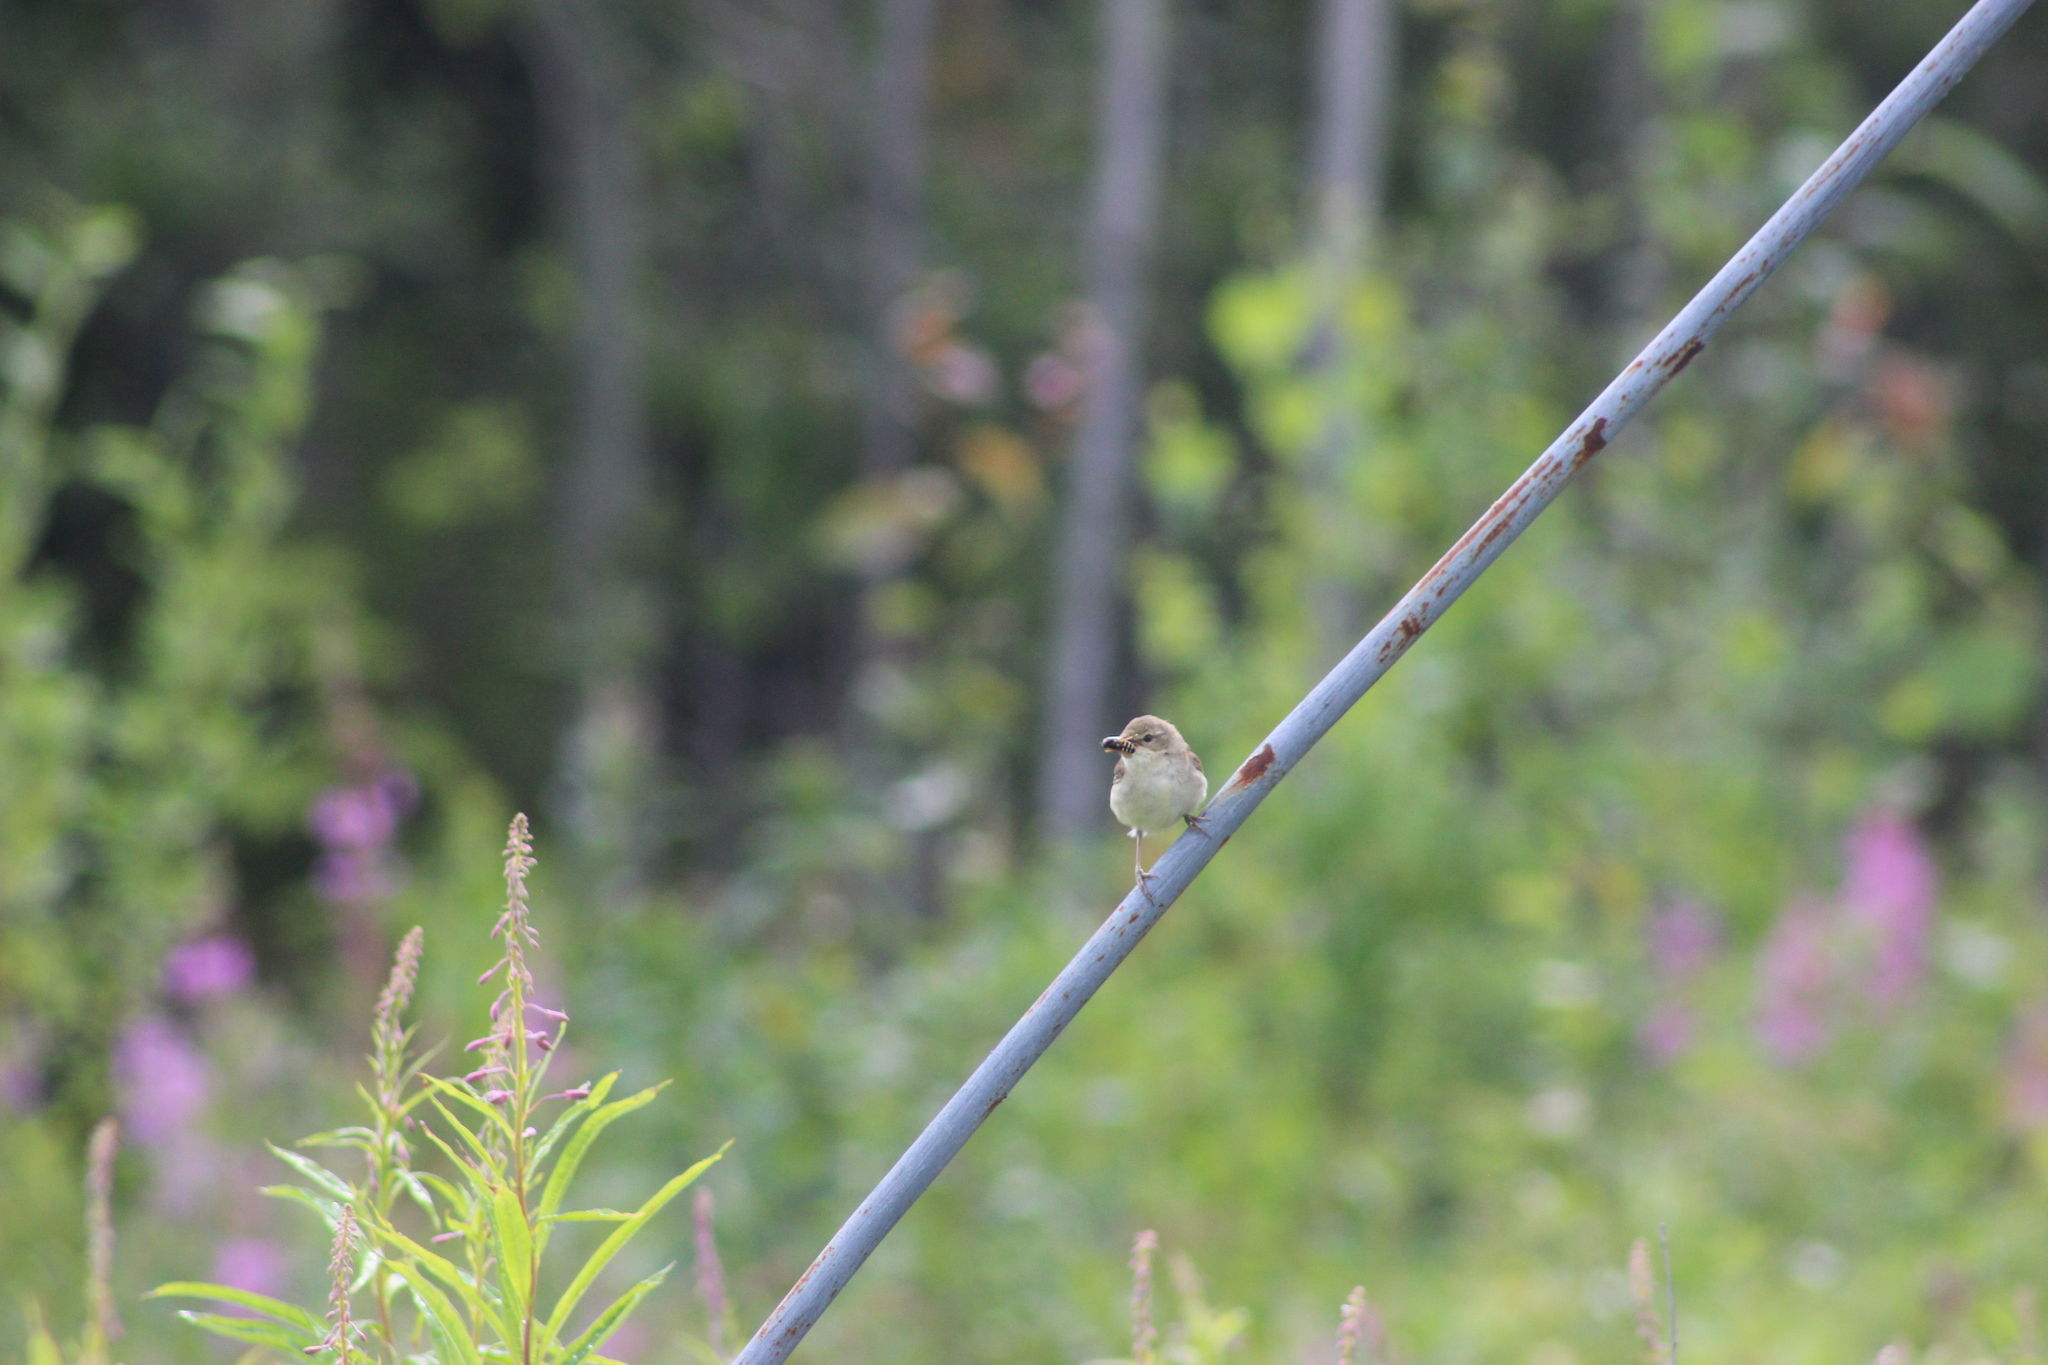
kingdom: Animalia
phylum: Chordata
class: Aves
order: Passeriformes
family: Acrocephalidae
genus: Acrocephalus
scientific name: Acrocephalus dumetorum
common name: Blyth's reed warbler
